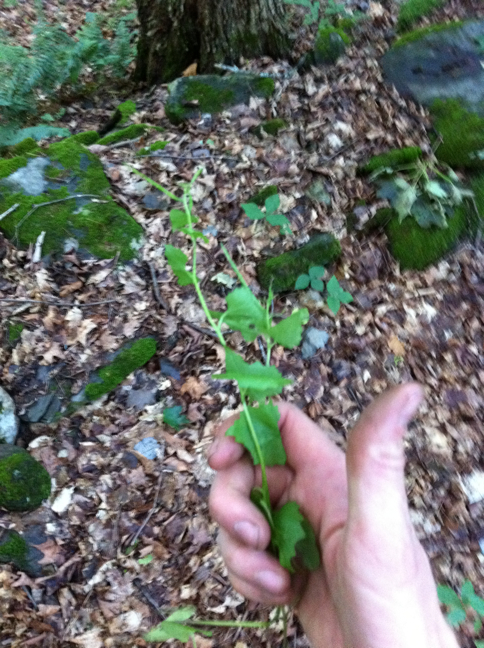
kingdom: Plantae
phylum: Tracheophyta
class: Magnoliopsida
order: Brassicales
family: Brassicaceae
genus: Alliaria
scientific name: Alliaria petiolata
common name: Garlic mustard
